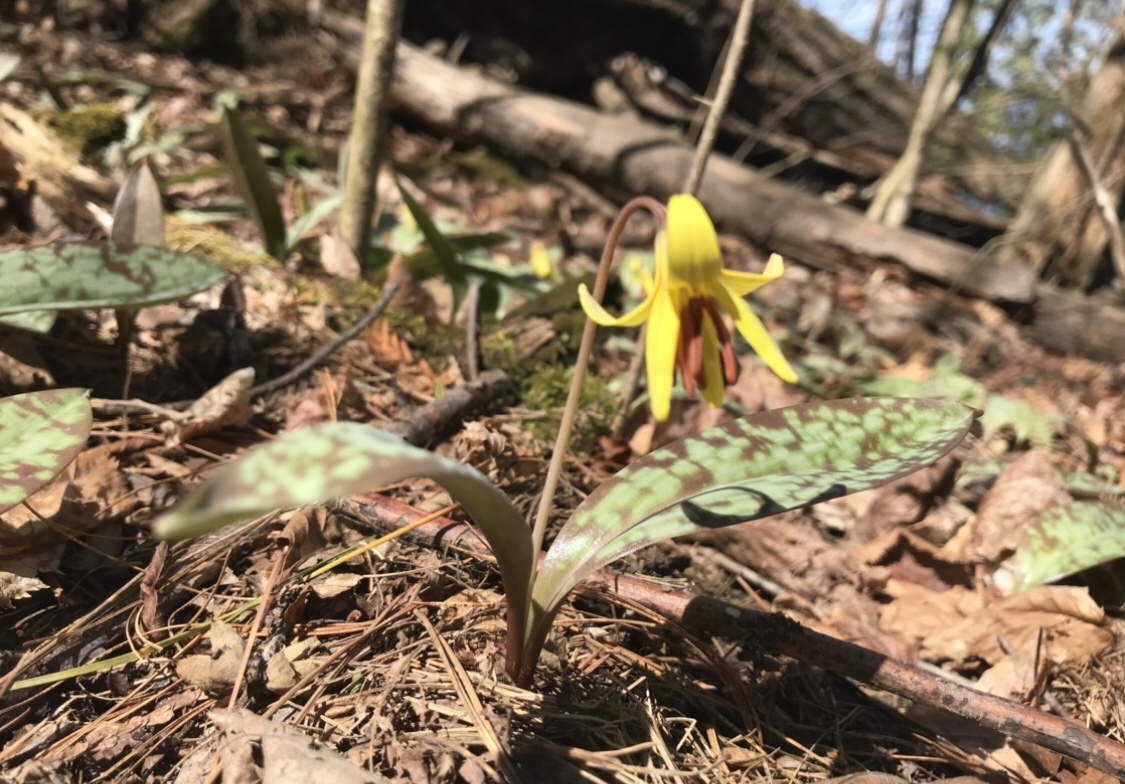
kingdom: Plantae
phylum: Tracheophyta
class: Liliopsida
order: Liliales
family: Liliaceae
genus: Erythronium
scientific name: Erythronium americanum
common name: Yellow adder's-tongue
